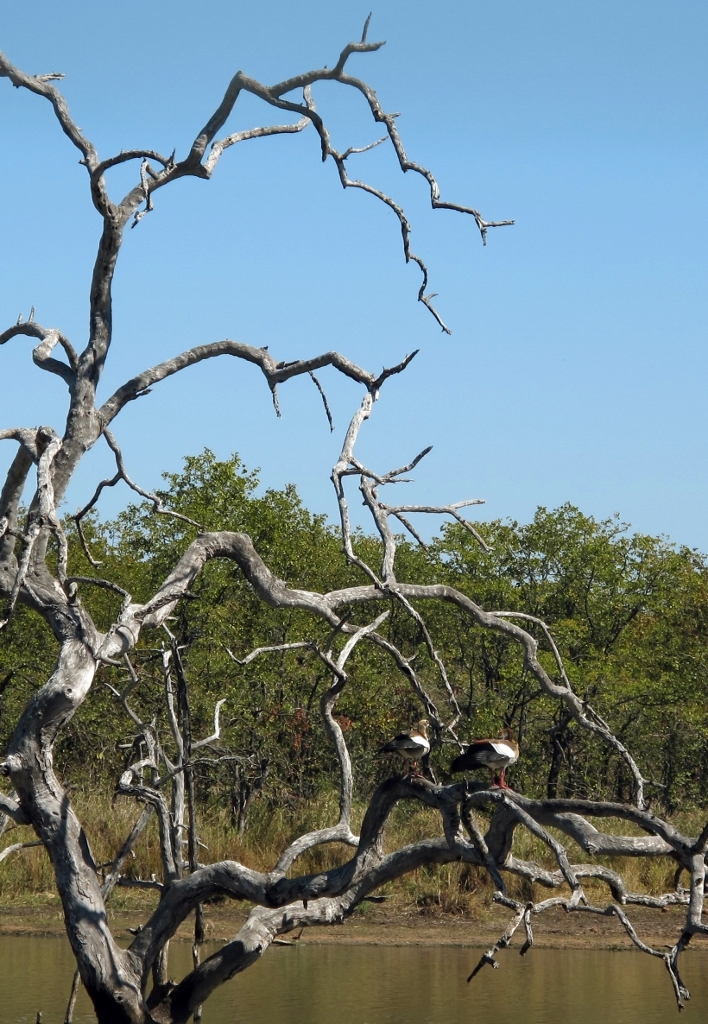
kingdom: Animalia
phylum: Chordata
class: Aves
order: Anseriformes
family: Anatidae
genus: Alopochen
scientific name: Alopochen aegyptiaca
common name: Egyptian goose
